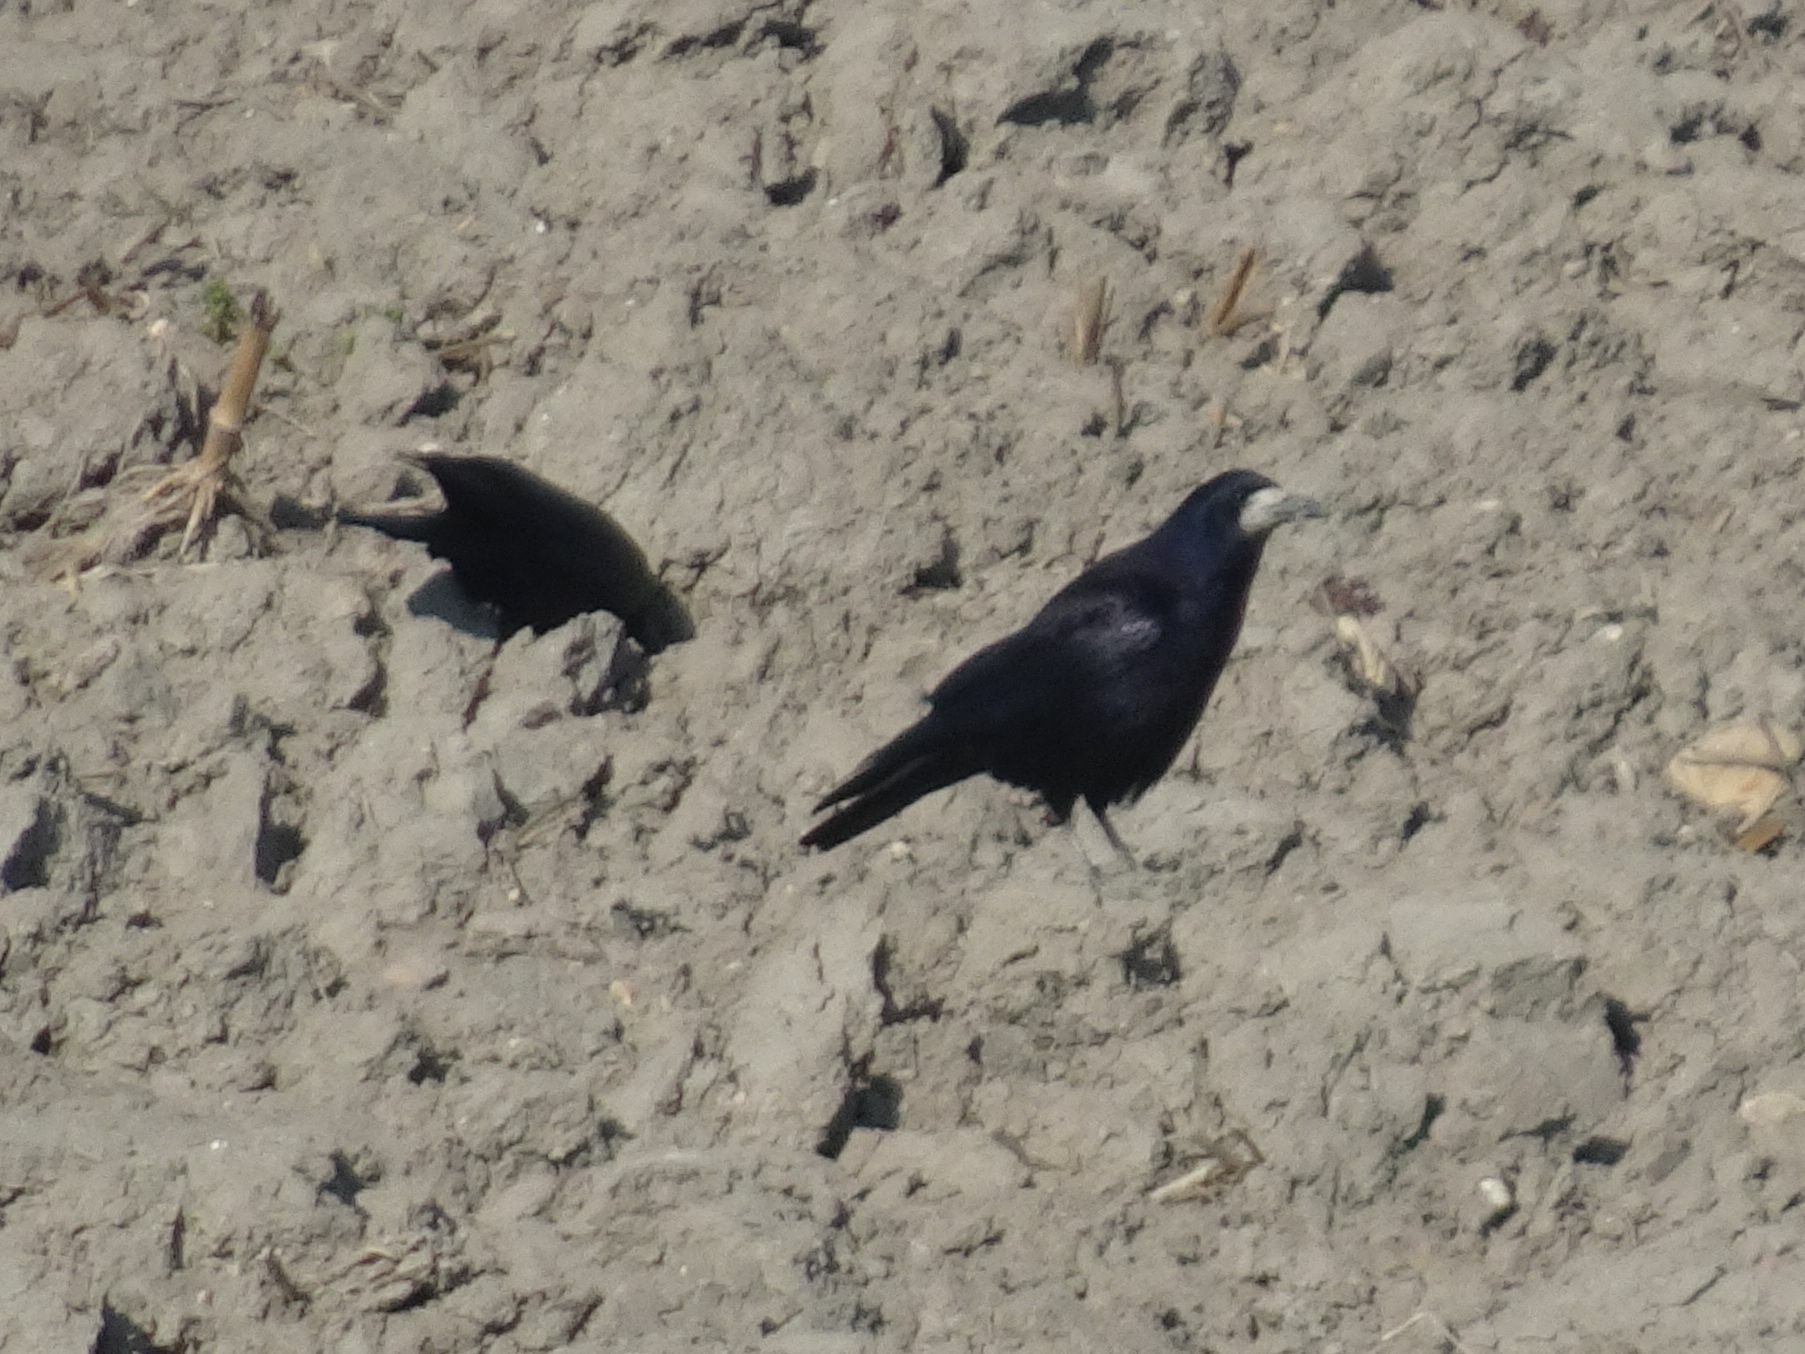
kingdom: Animalia
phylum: Chordata
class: Aves
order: Passeriformes
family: Corvidae
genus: Corvus
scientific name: Corvus frugilegus
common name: Rook
